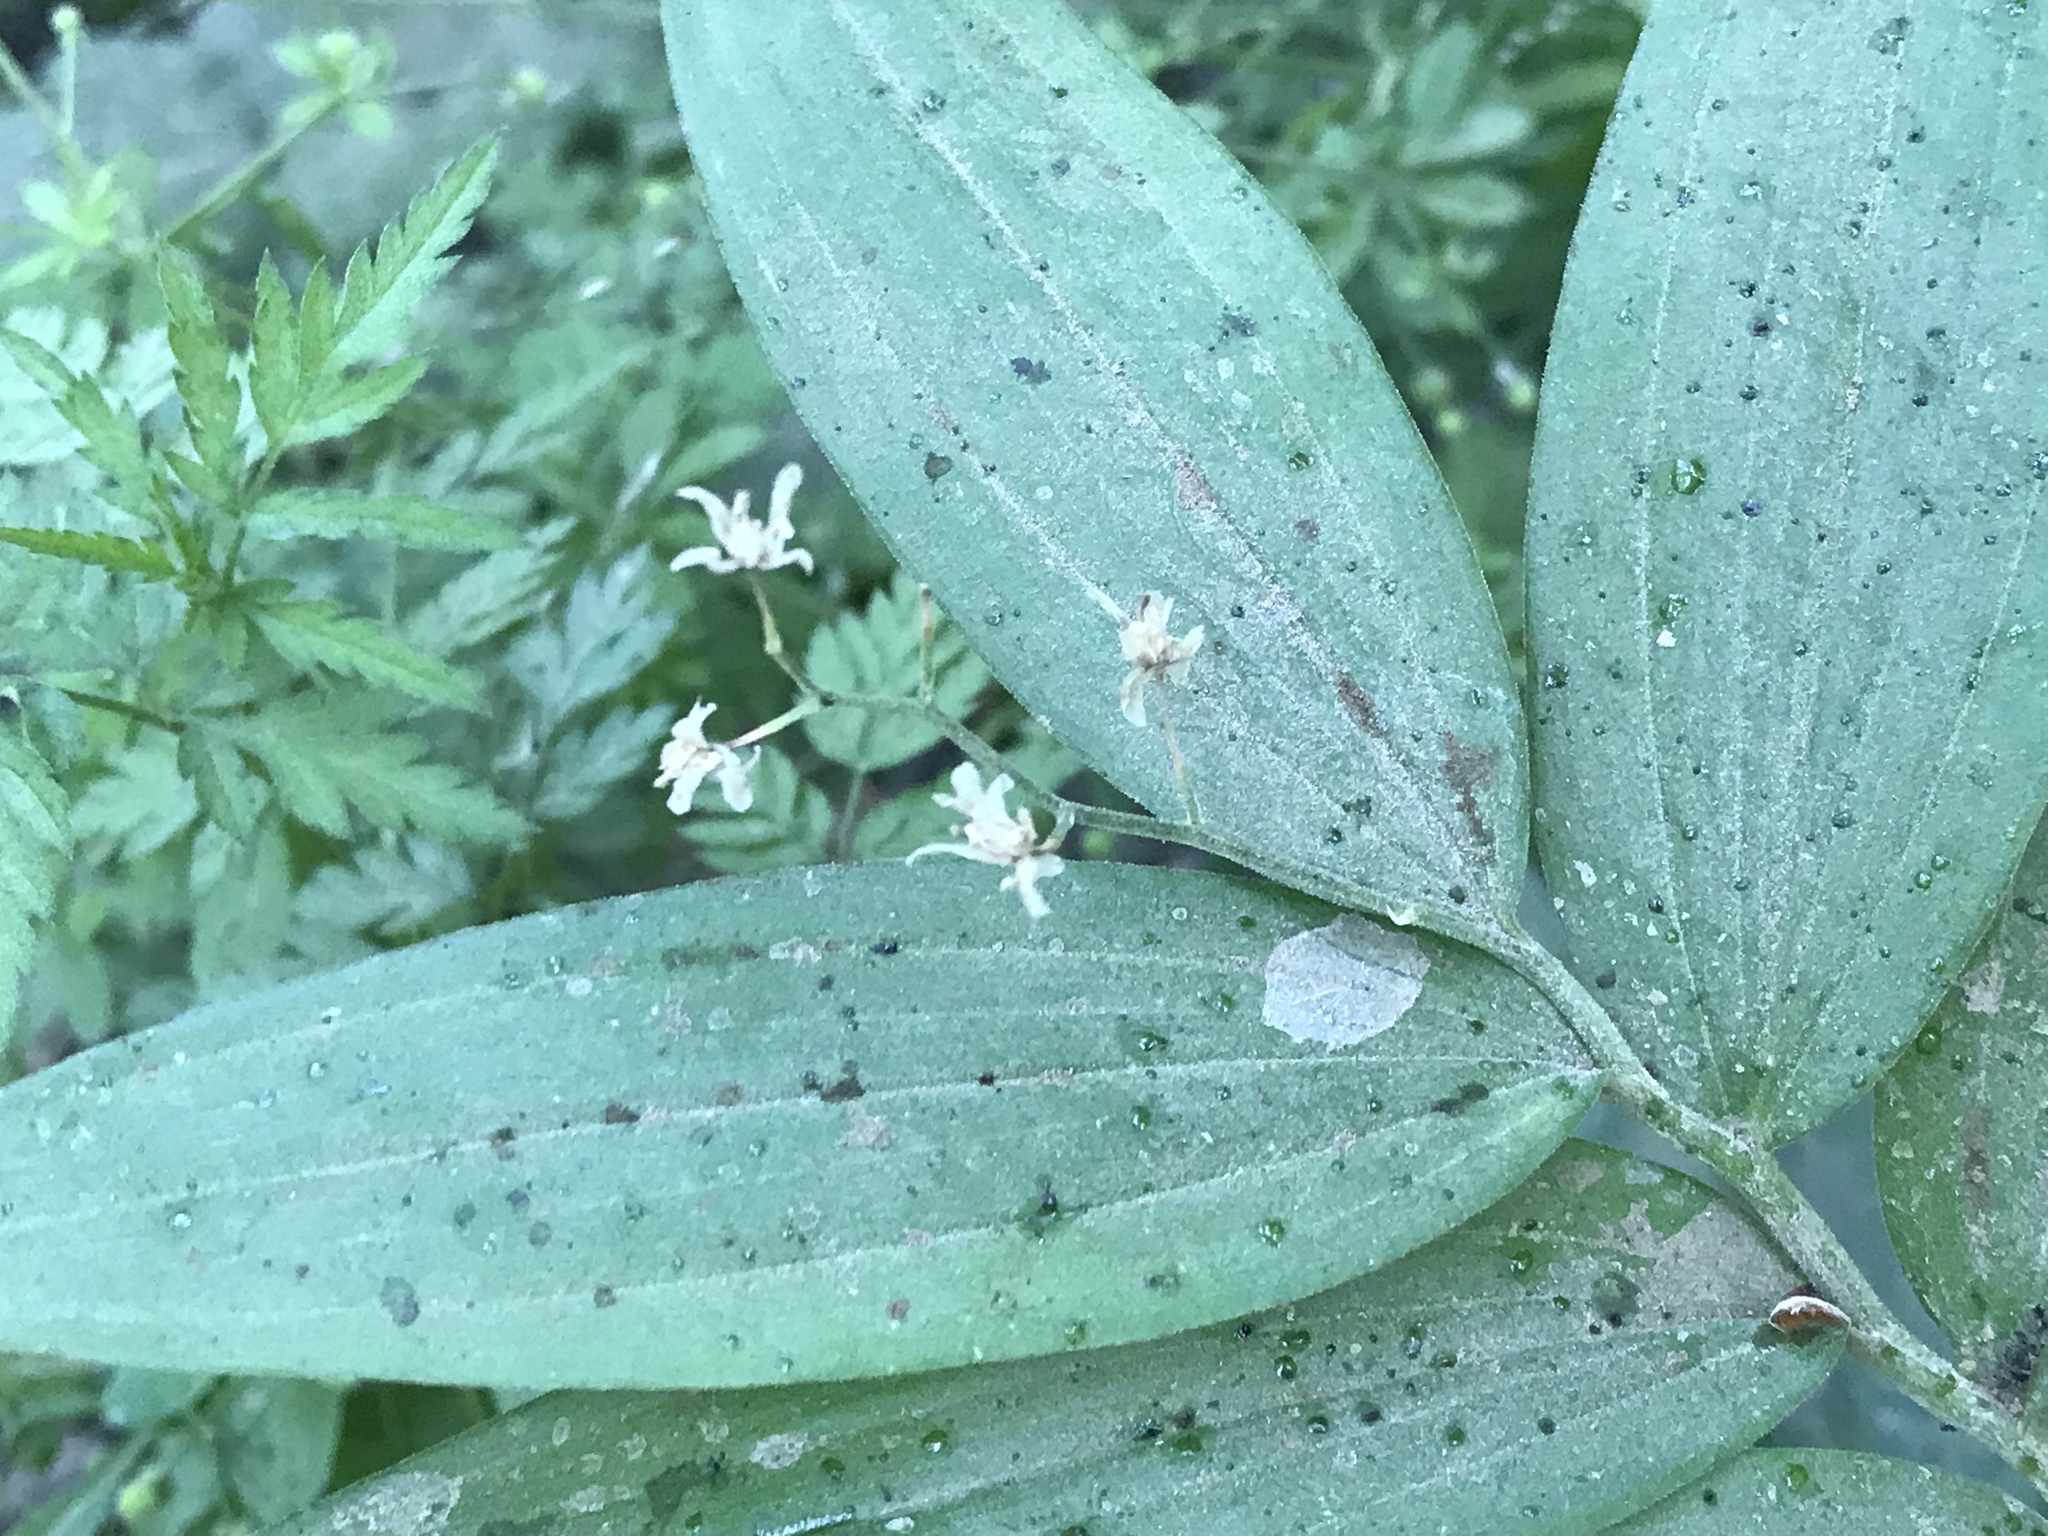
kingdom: Plantae
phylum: Tracheophyta
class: Liliopsida
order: Asparagales
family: Asparagaceae
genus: Maianthemum
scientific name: Maianthemum stellatum
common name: Little false solomon's seal
